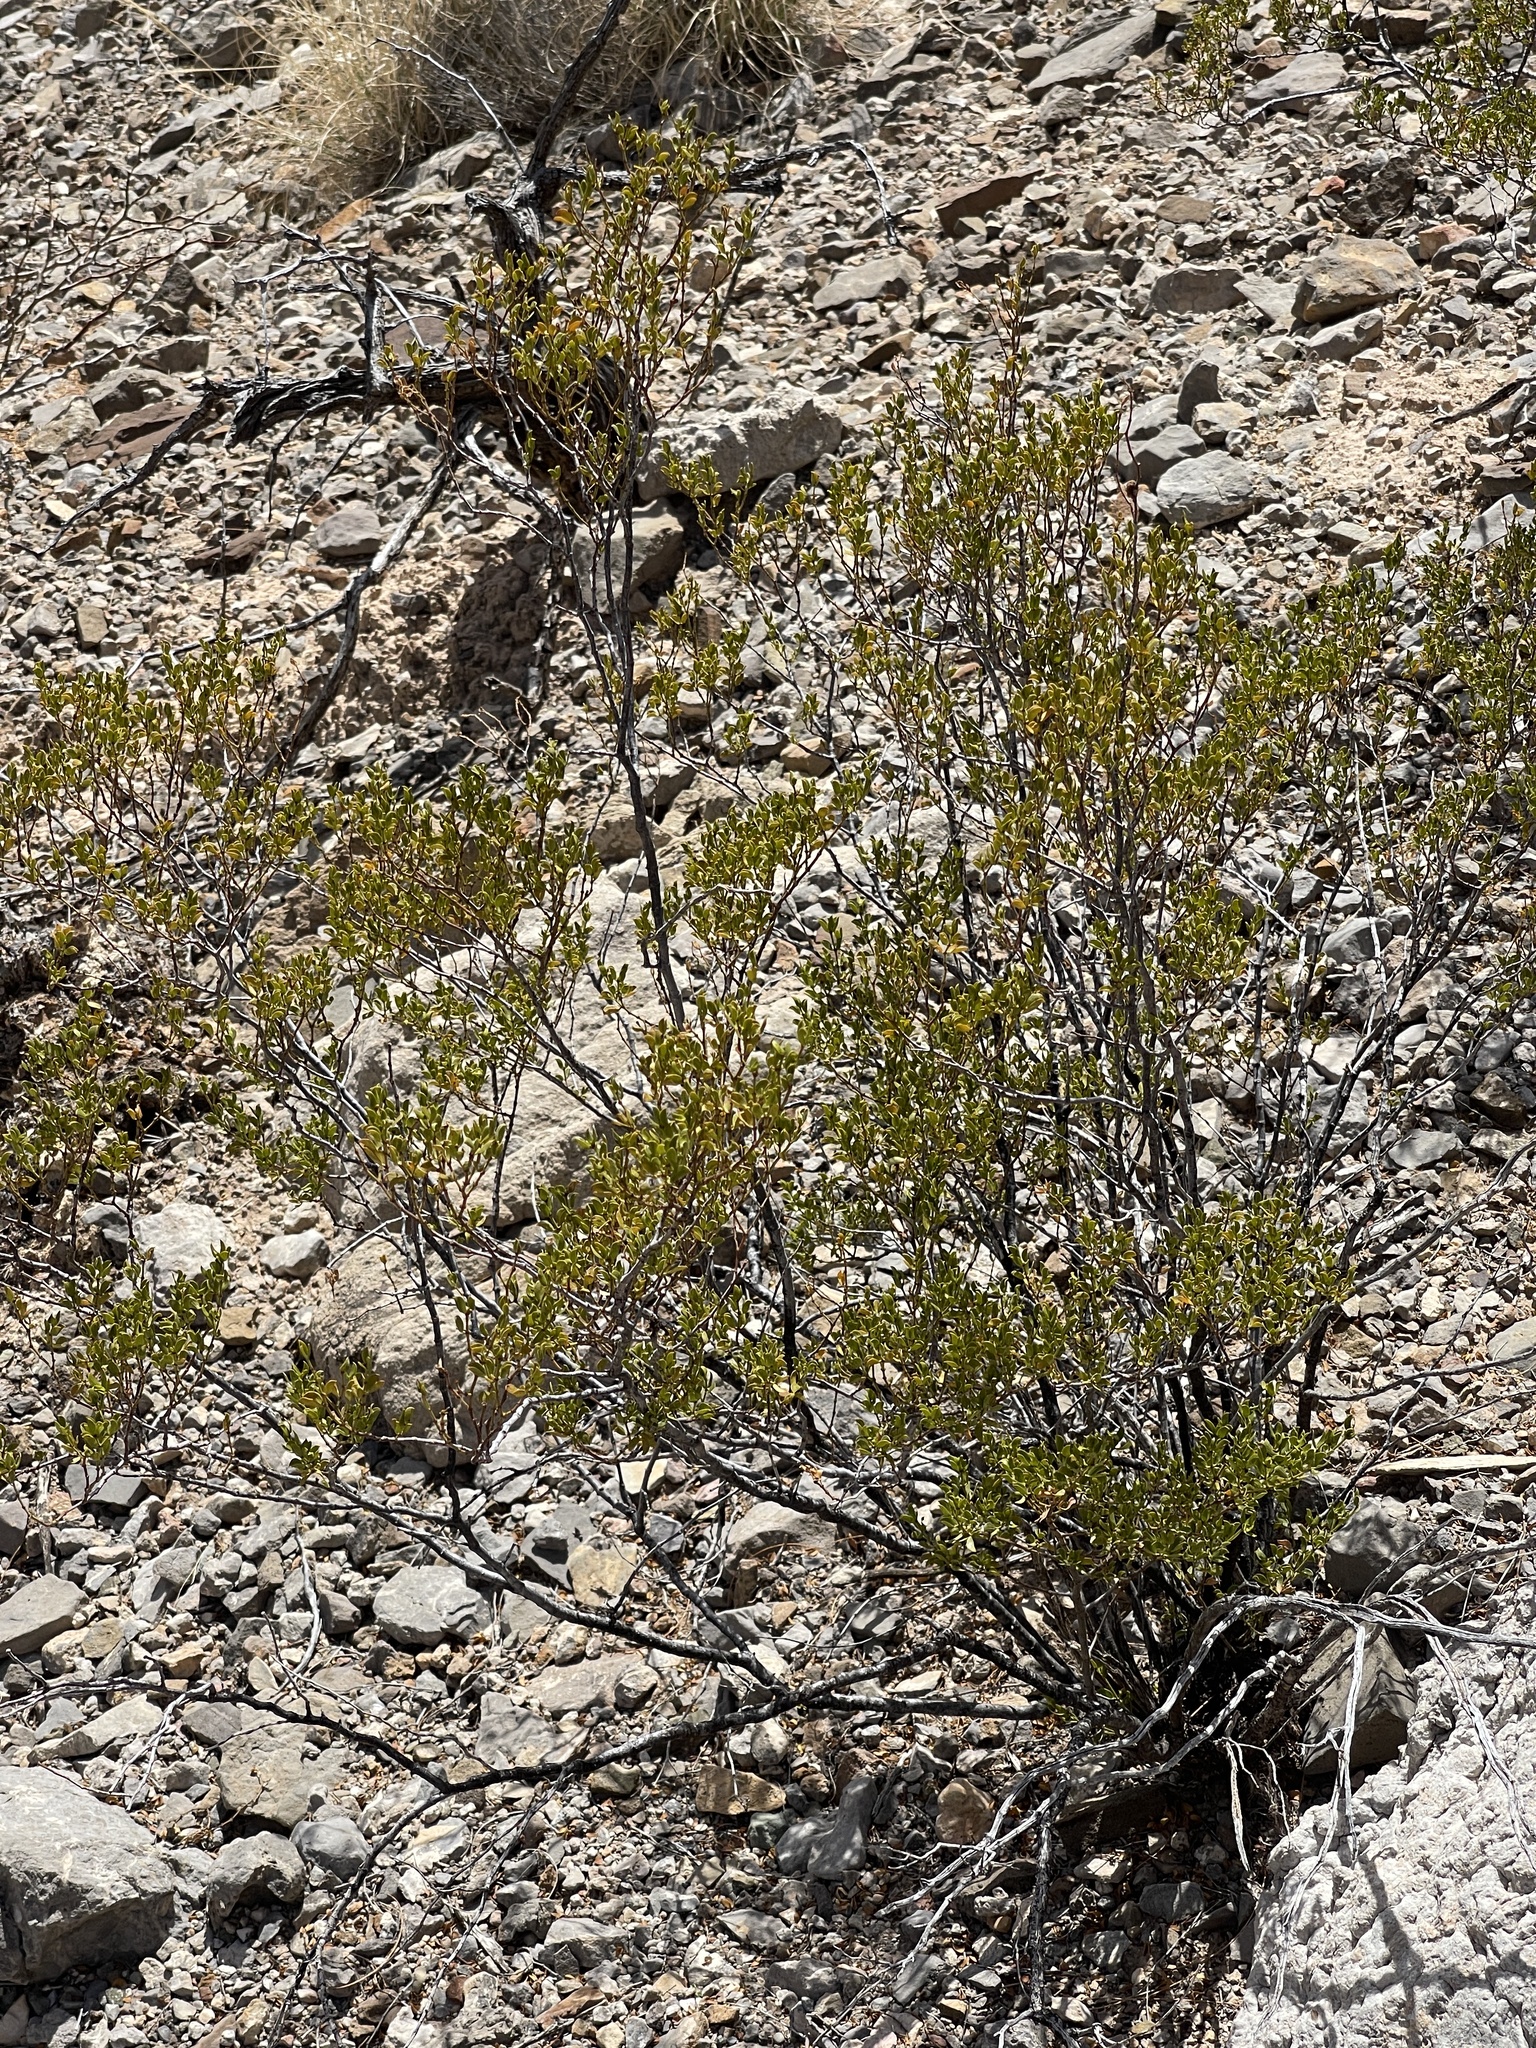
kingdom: Plantae
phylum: Tracheophyta
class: Magnoliopsida
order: Zygophyllales
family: Zygophyllaceae
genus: Larrea
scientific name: Larrea tridentata
